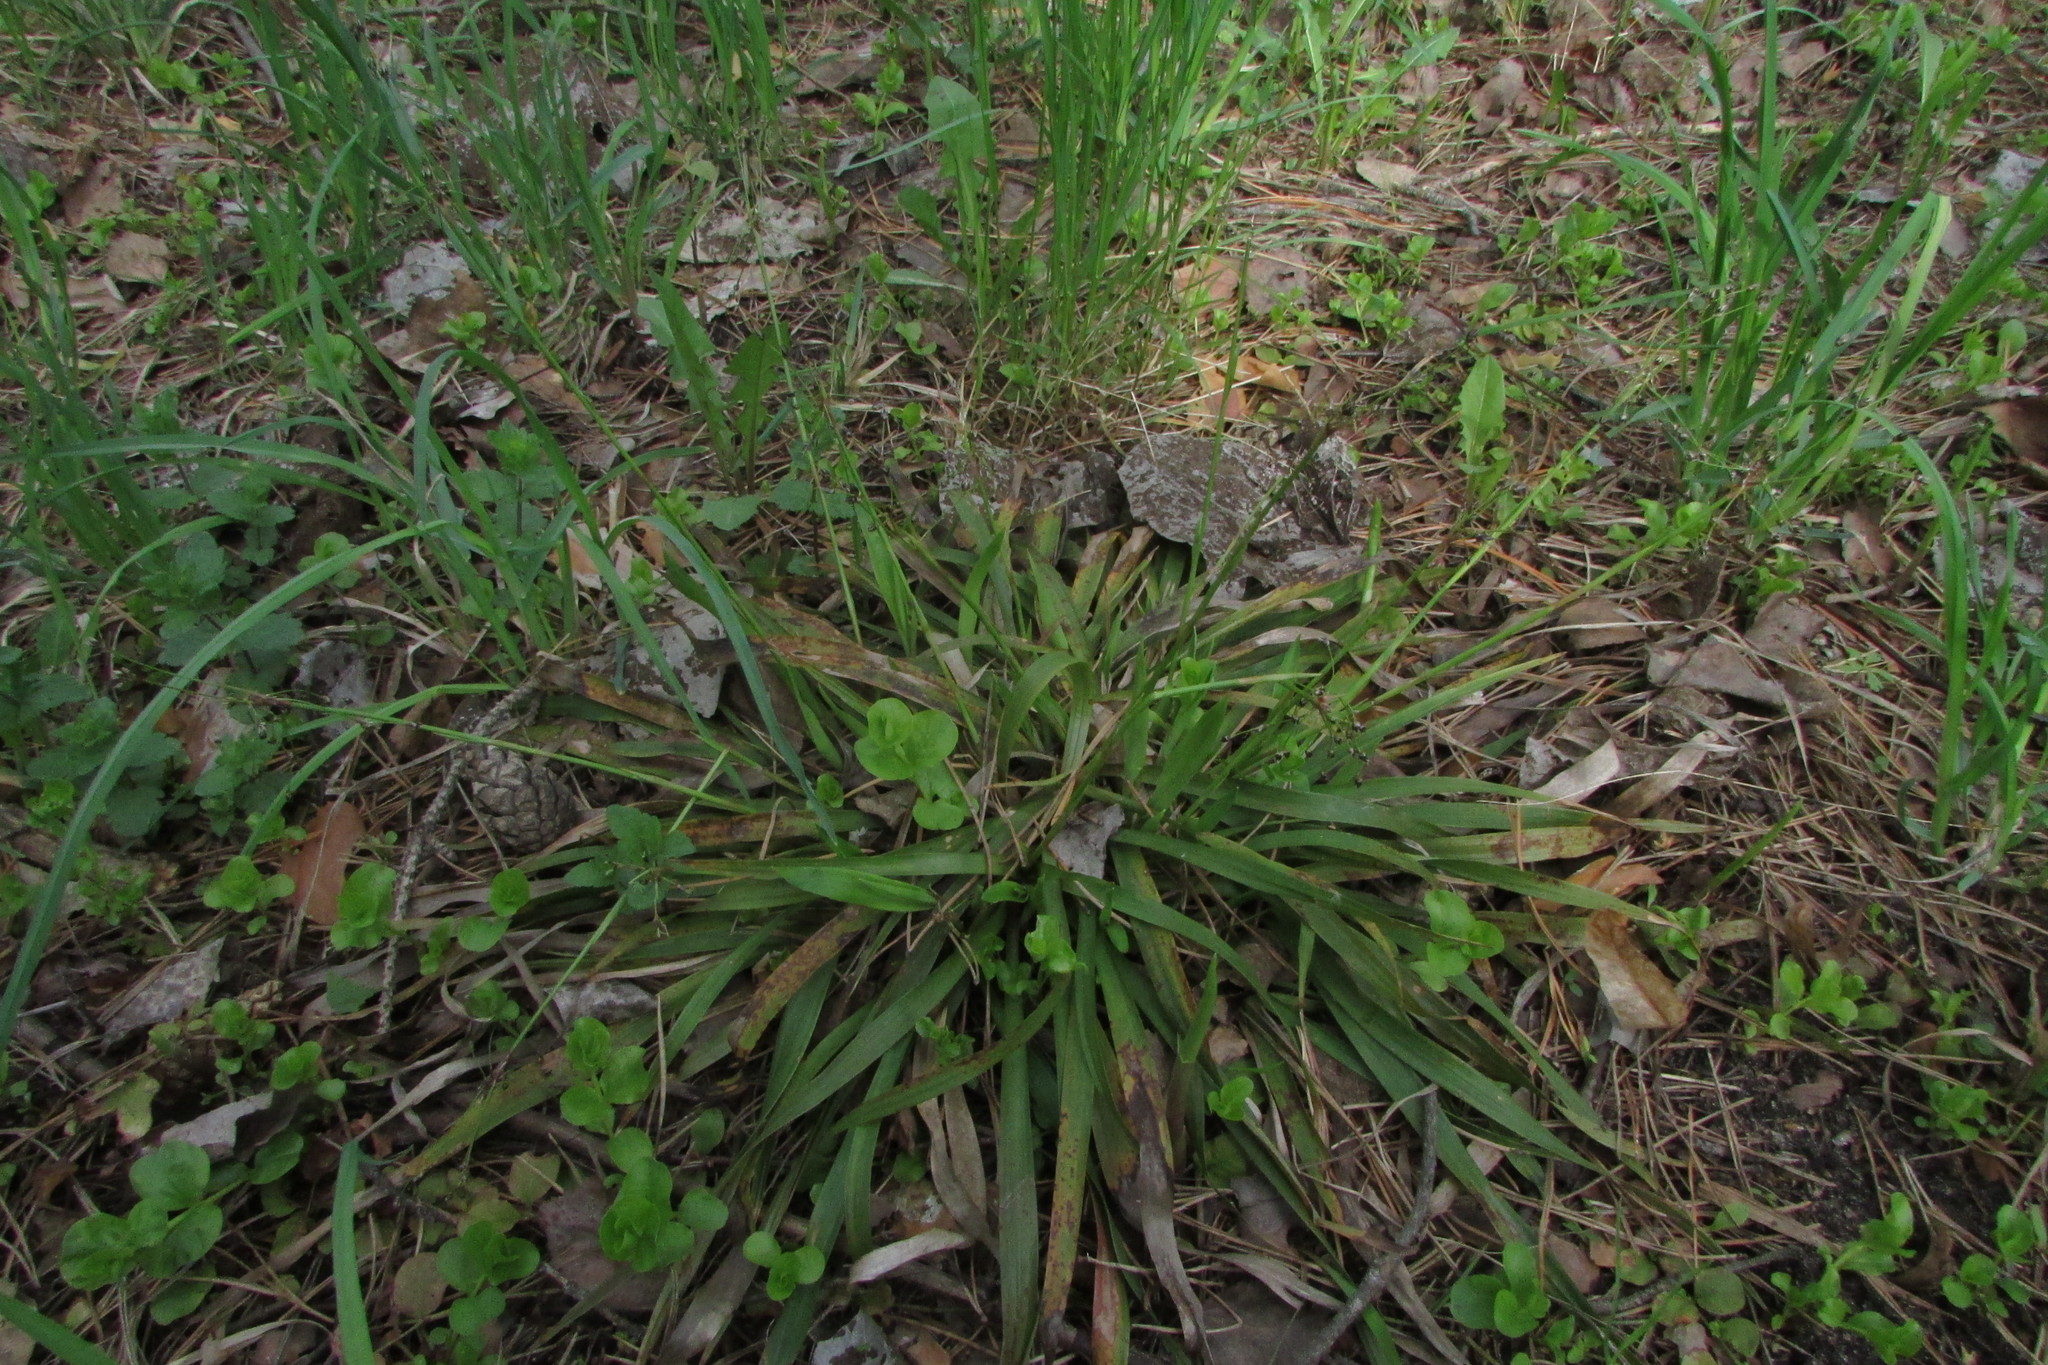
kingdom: Plantae
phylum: Tracheophyta
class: Liliopsida
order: Poales
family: Juncaceae
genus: Luzula
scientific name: Luzula pilosa
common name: Hairy wood-rush
